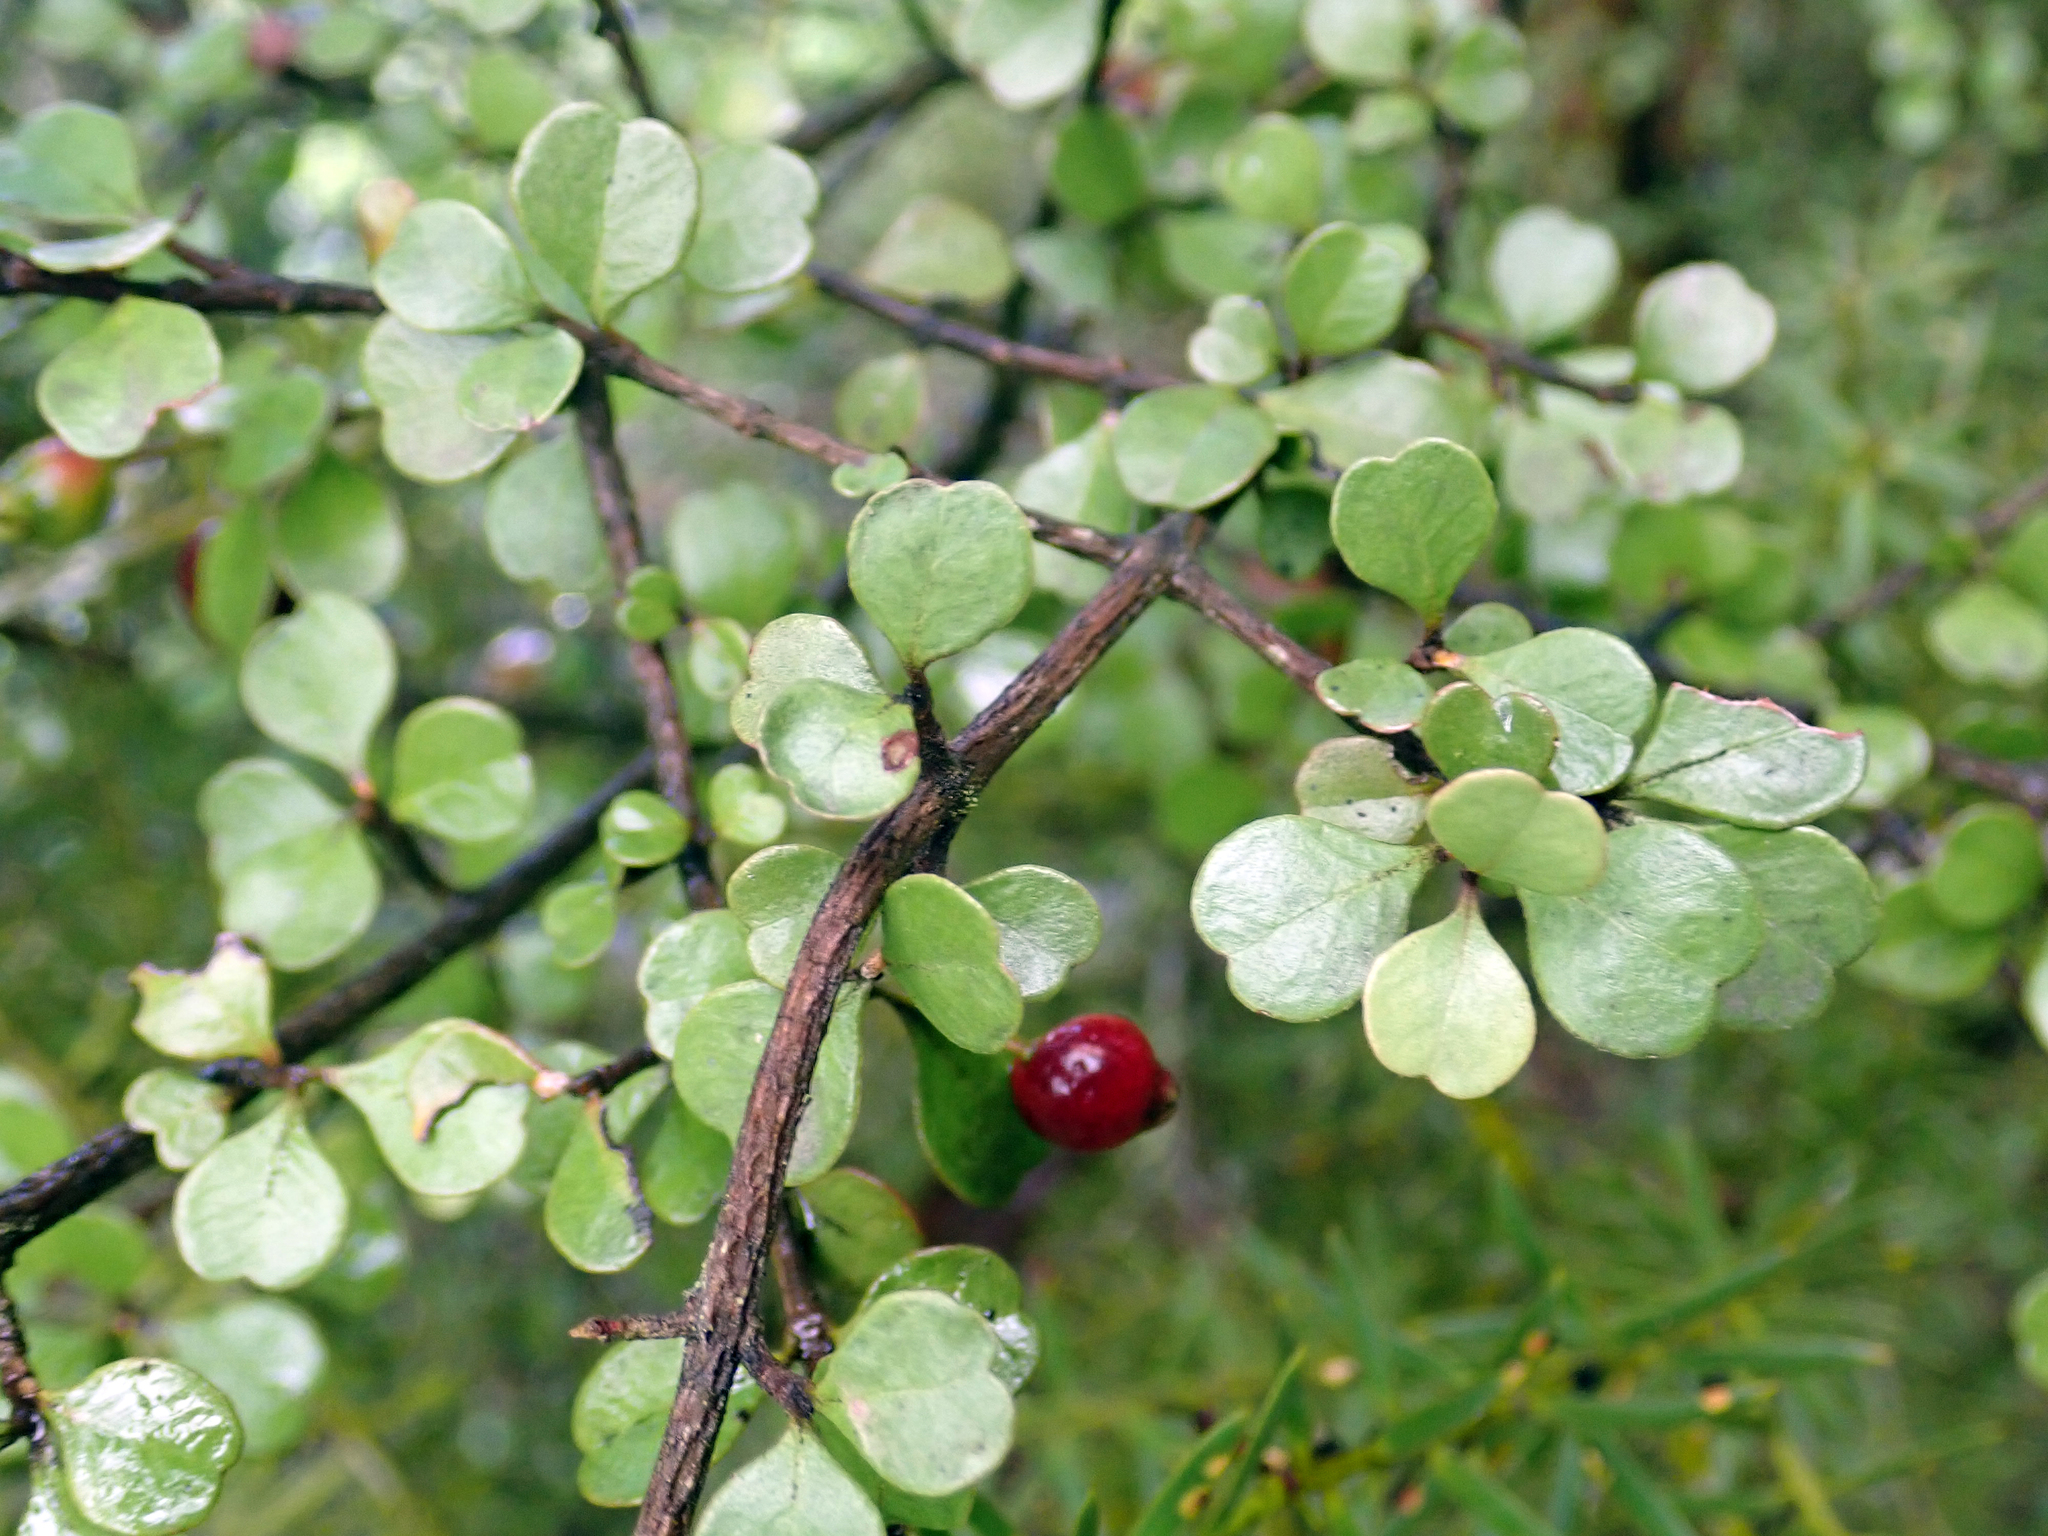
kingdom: Plantae
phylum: Tracheophyta
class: Magnoliopsida
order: Myrtales
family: Myrtaceae
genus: Lophomyrtus
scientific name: Lophomyrtus obcordata
